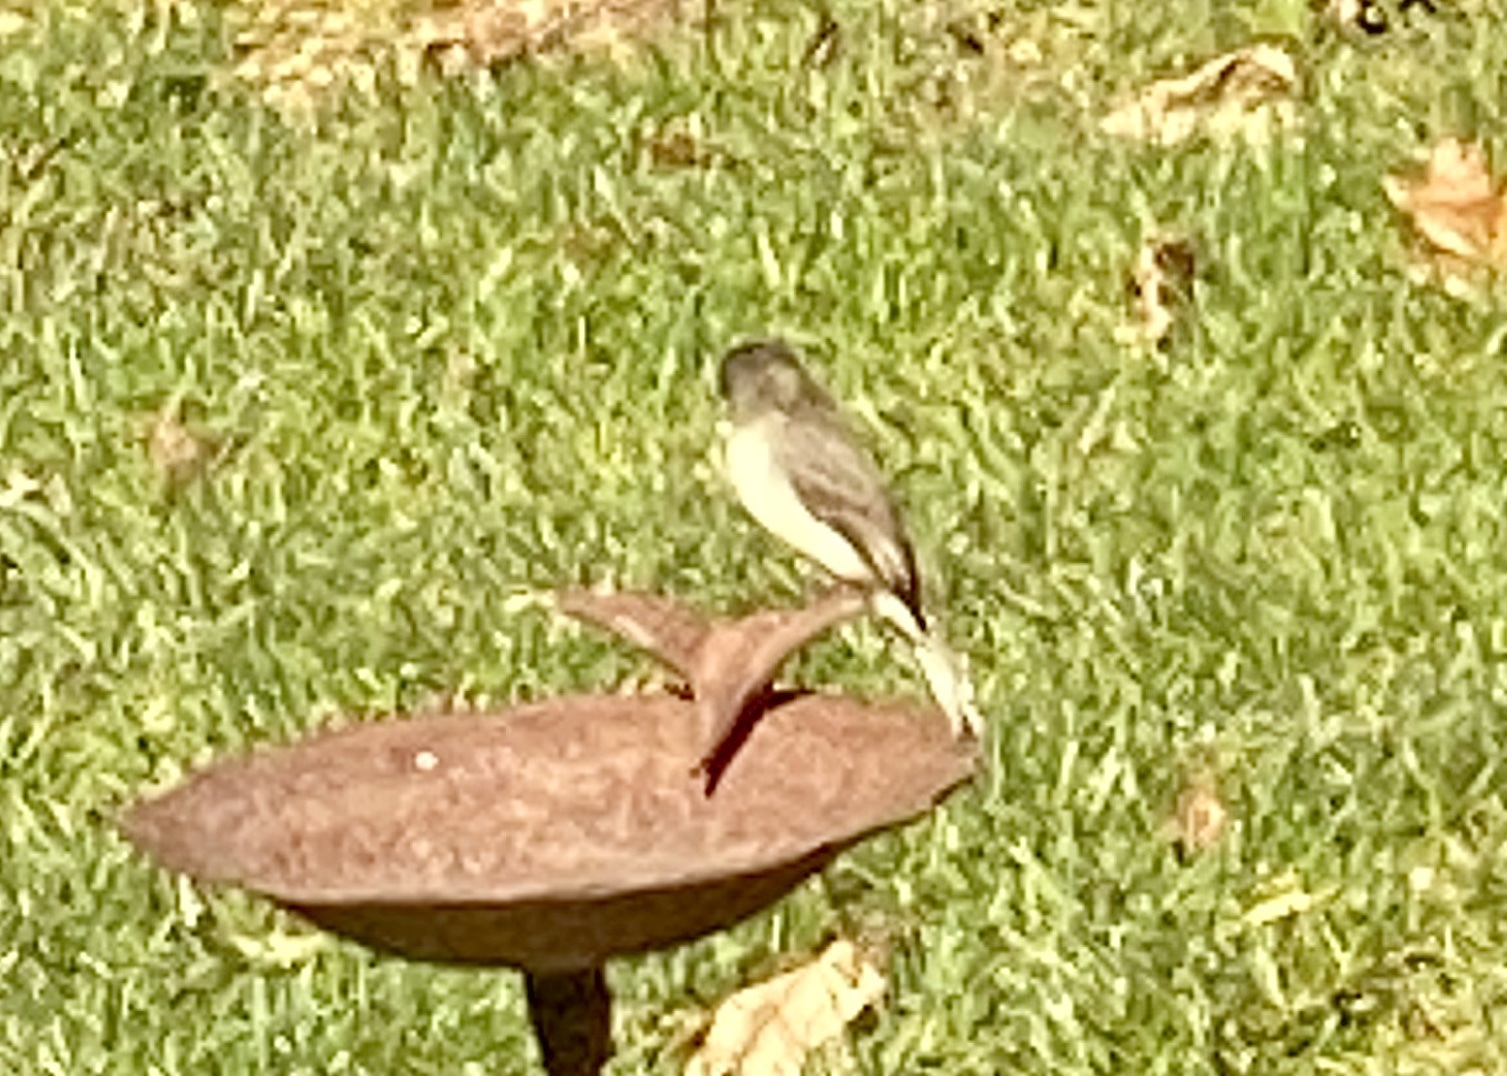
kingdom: Animalia
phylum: Chordata
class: Aves
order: Passeriformes
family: Tyrannidae
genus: Sayornis
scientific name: Sayornis phoebe
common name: Eastern phoebe
